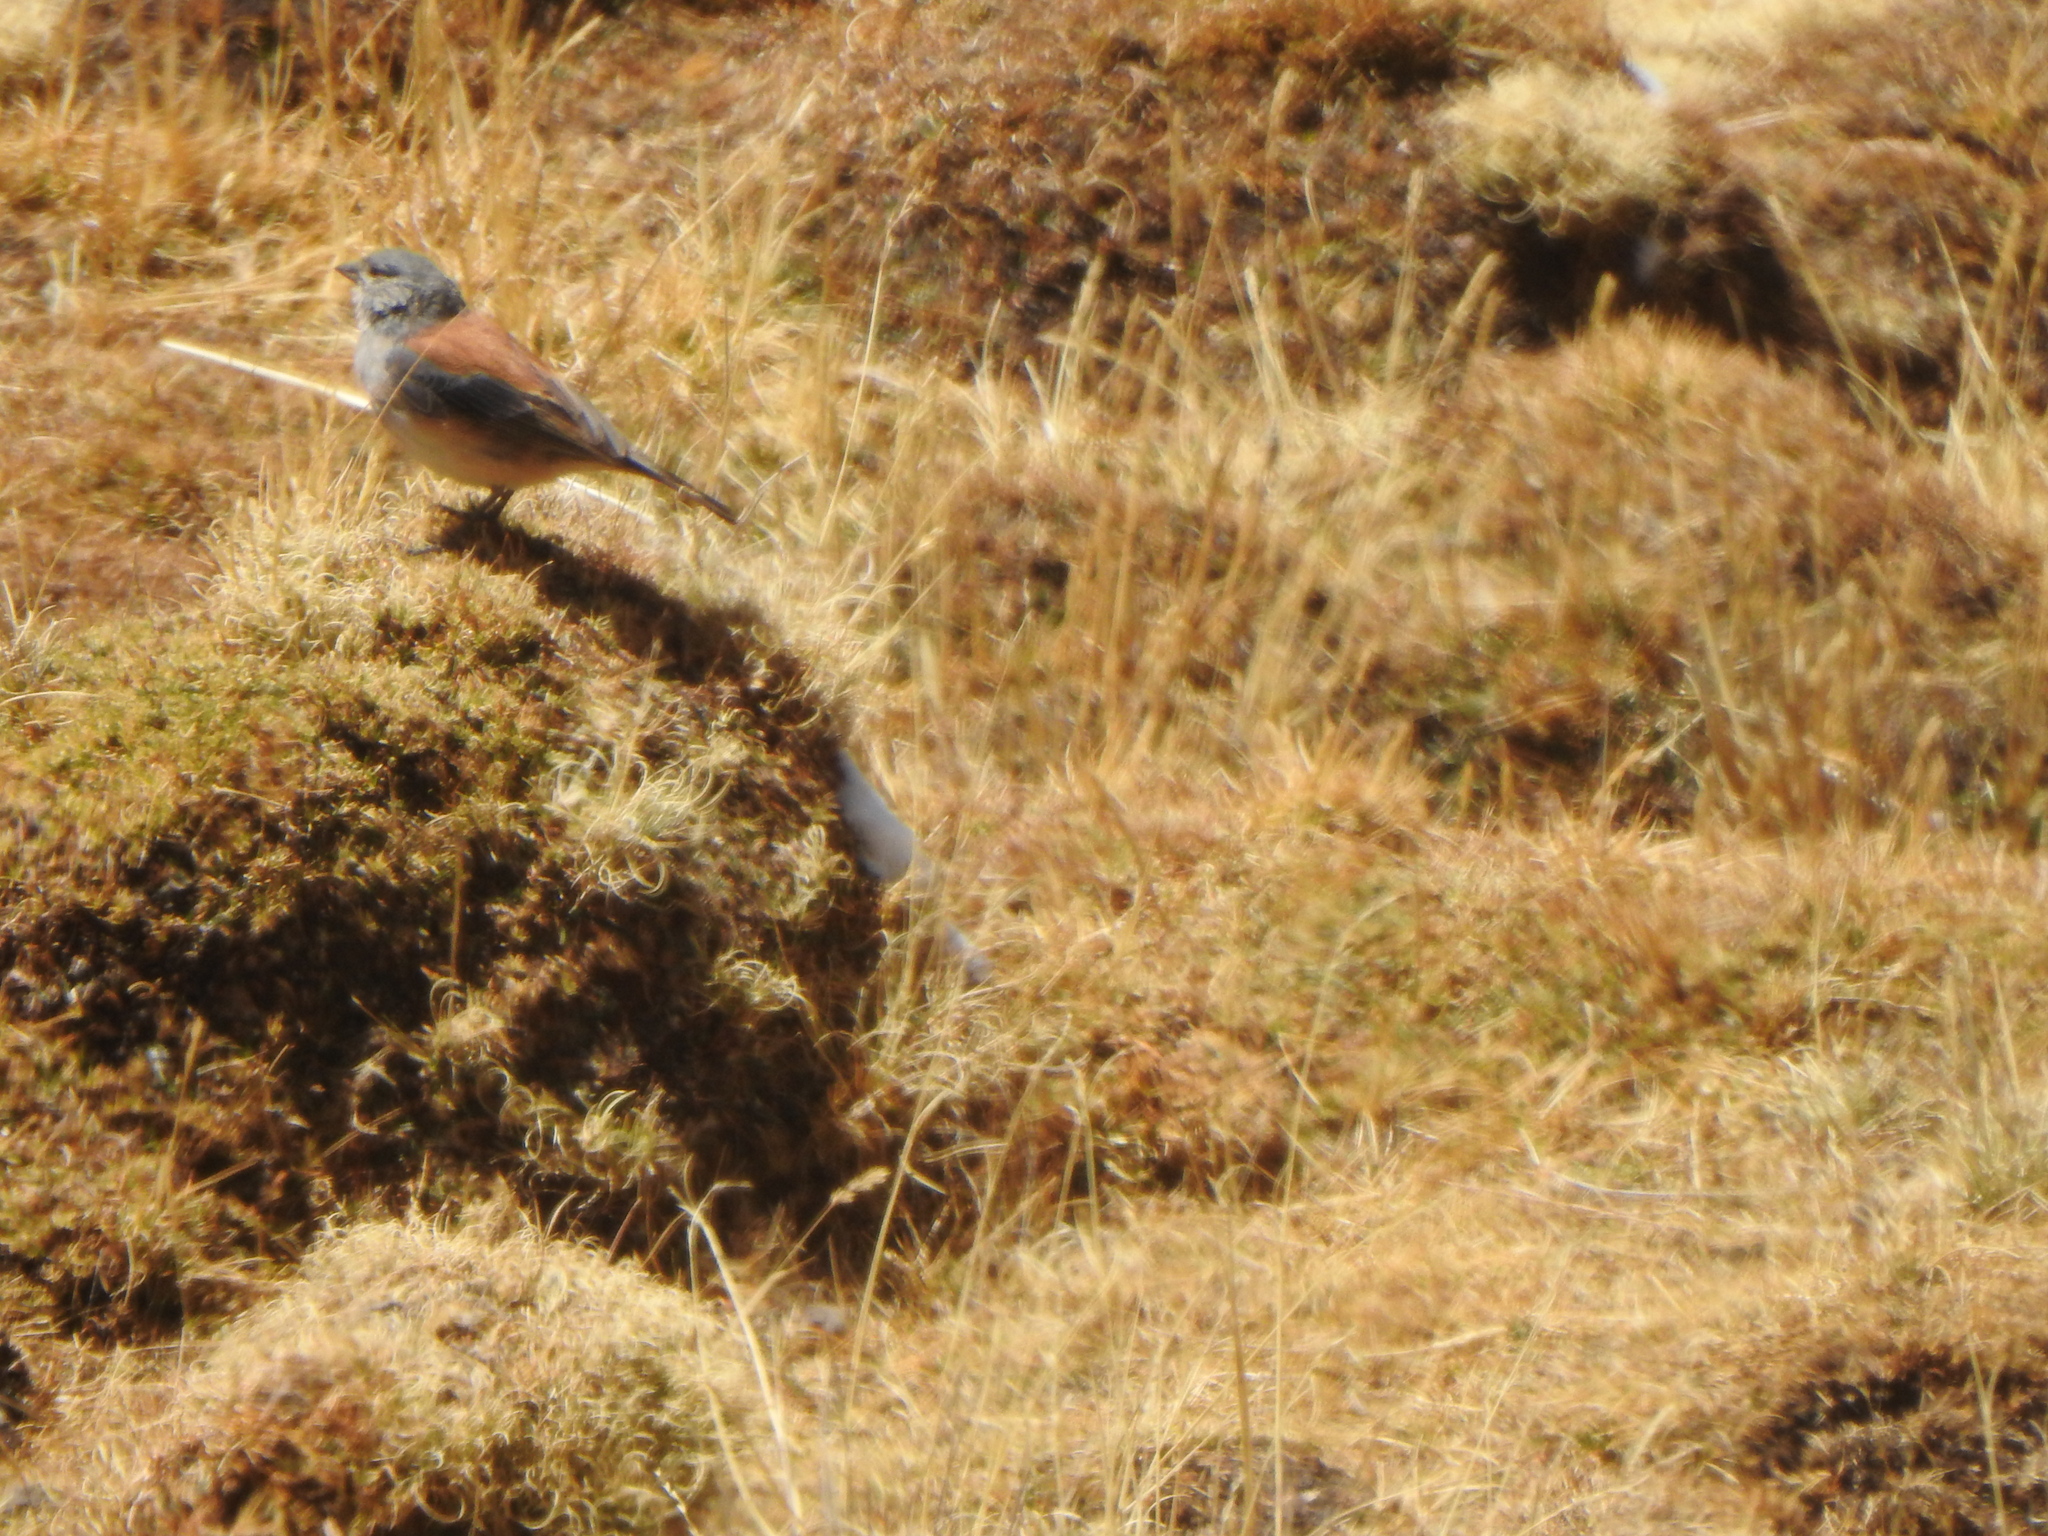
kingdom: Animalia
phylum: Chordata
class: Aves
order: Passeriformes
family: Thraupidae
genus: Idiopsar
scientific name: Idiopsar dorsalis
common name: Red-backed sierra finch
